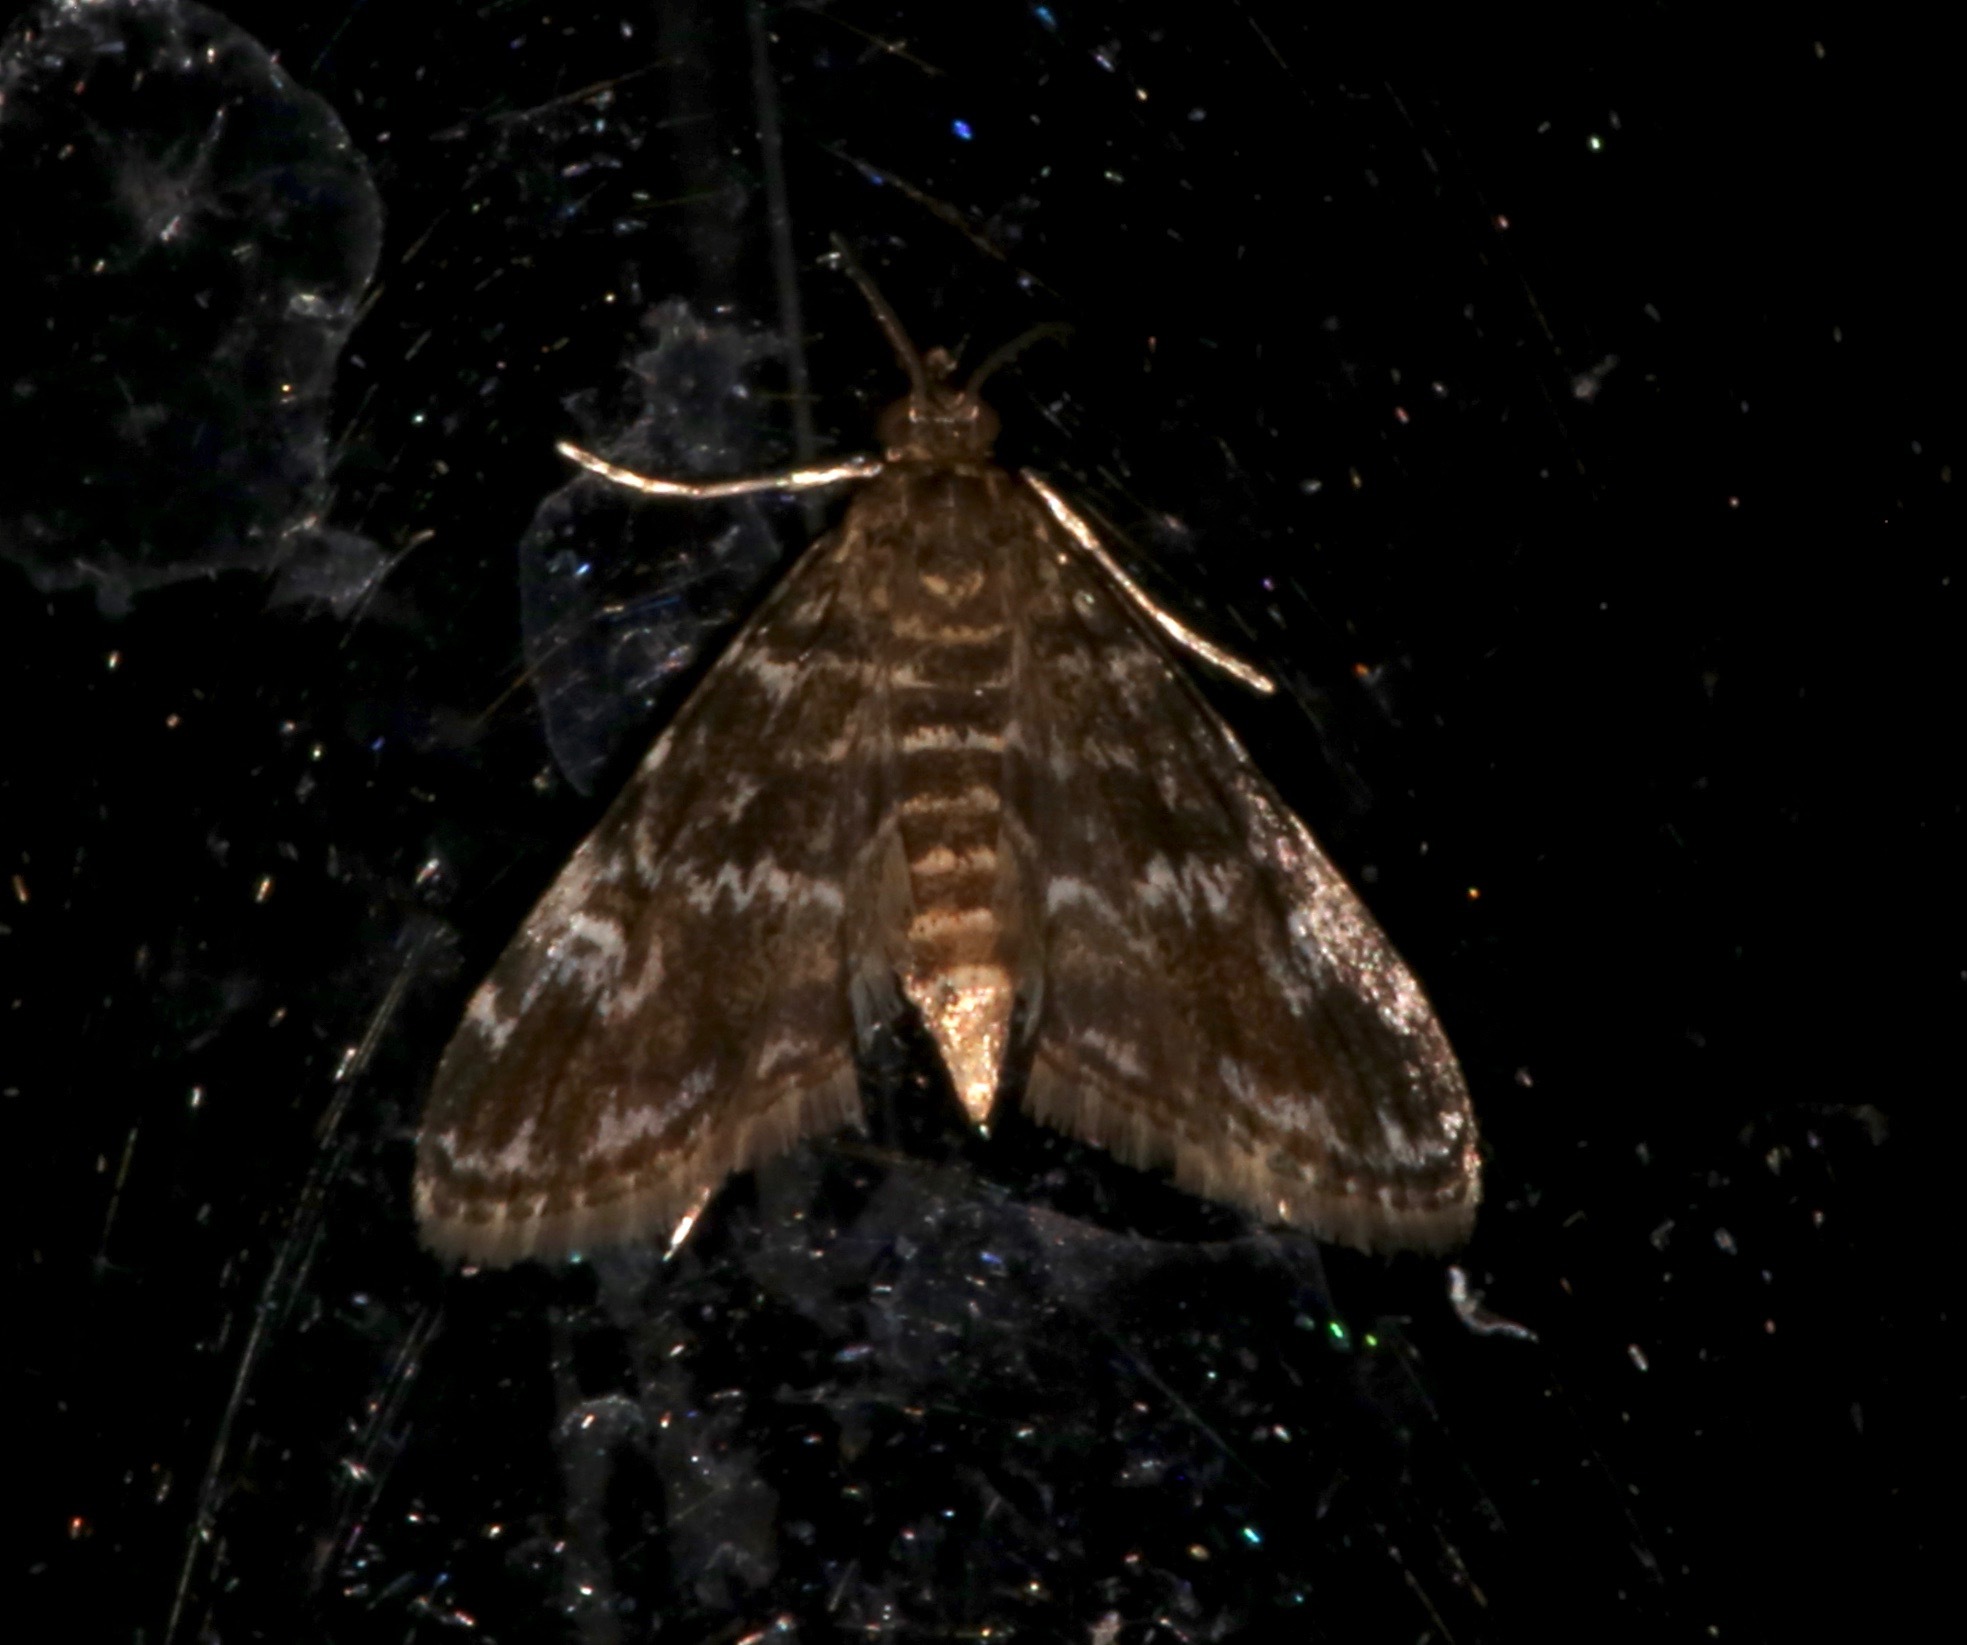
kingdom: Animalia
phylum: Arthropoda
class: Insecta
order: Lepidoptera
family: Crambidae
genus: Elophila
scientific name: Elophila obliteralis
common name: Waterlily leafcutter moth
